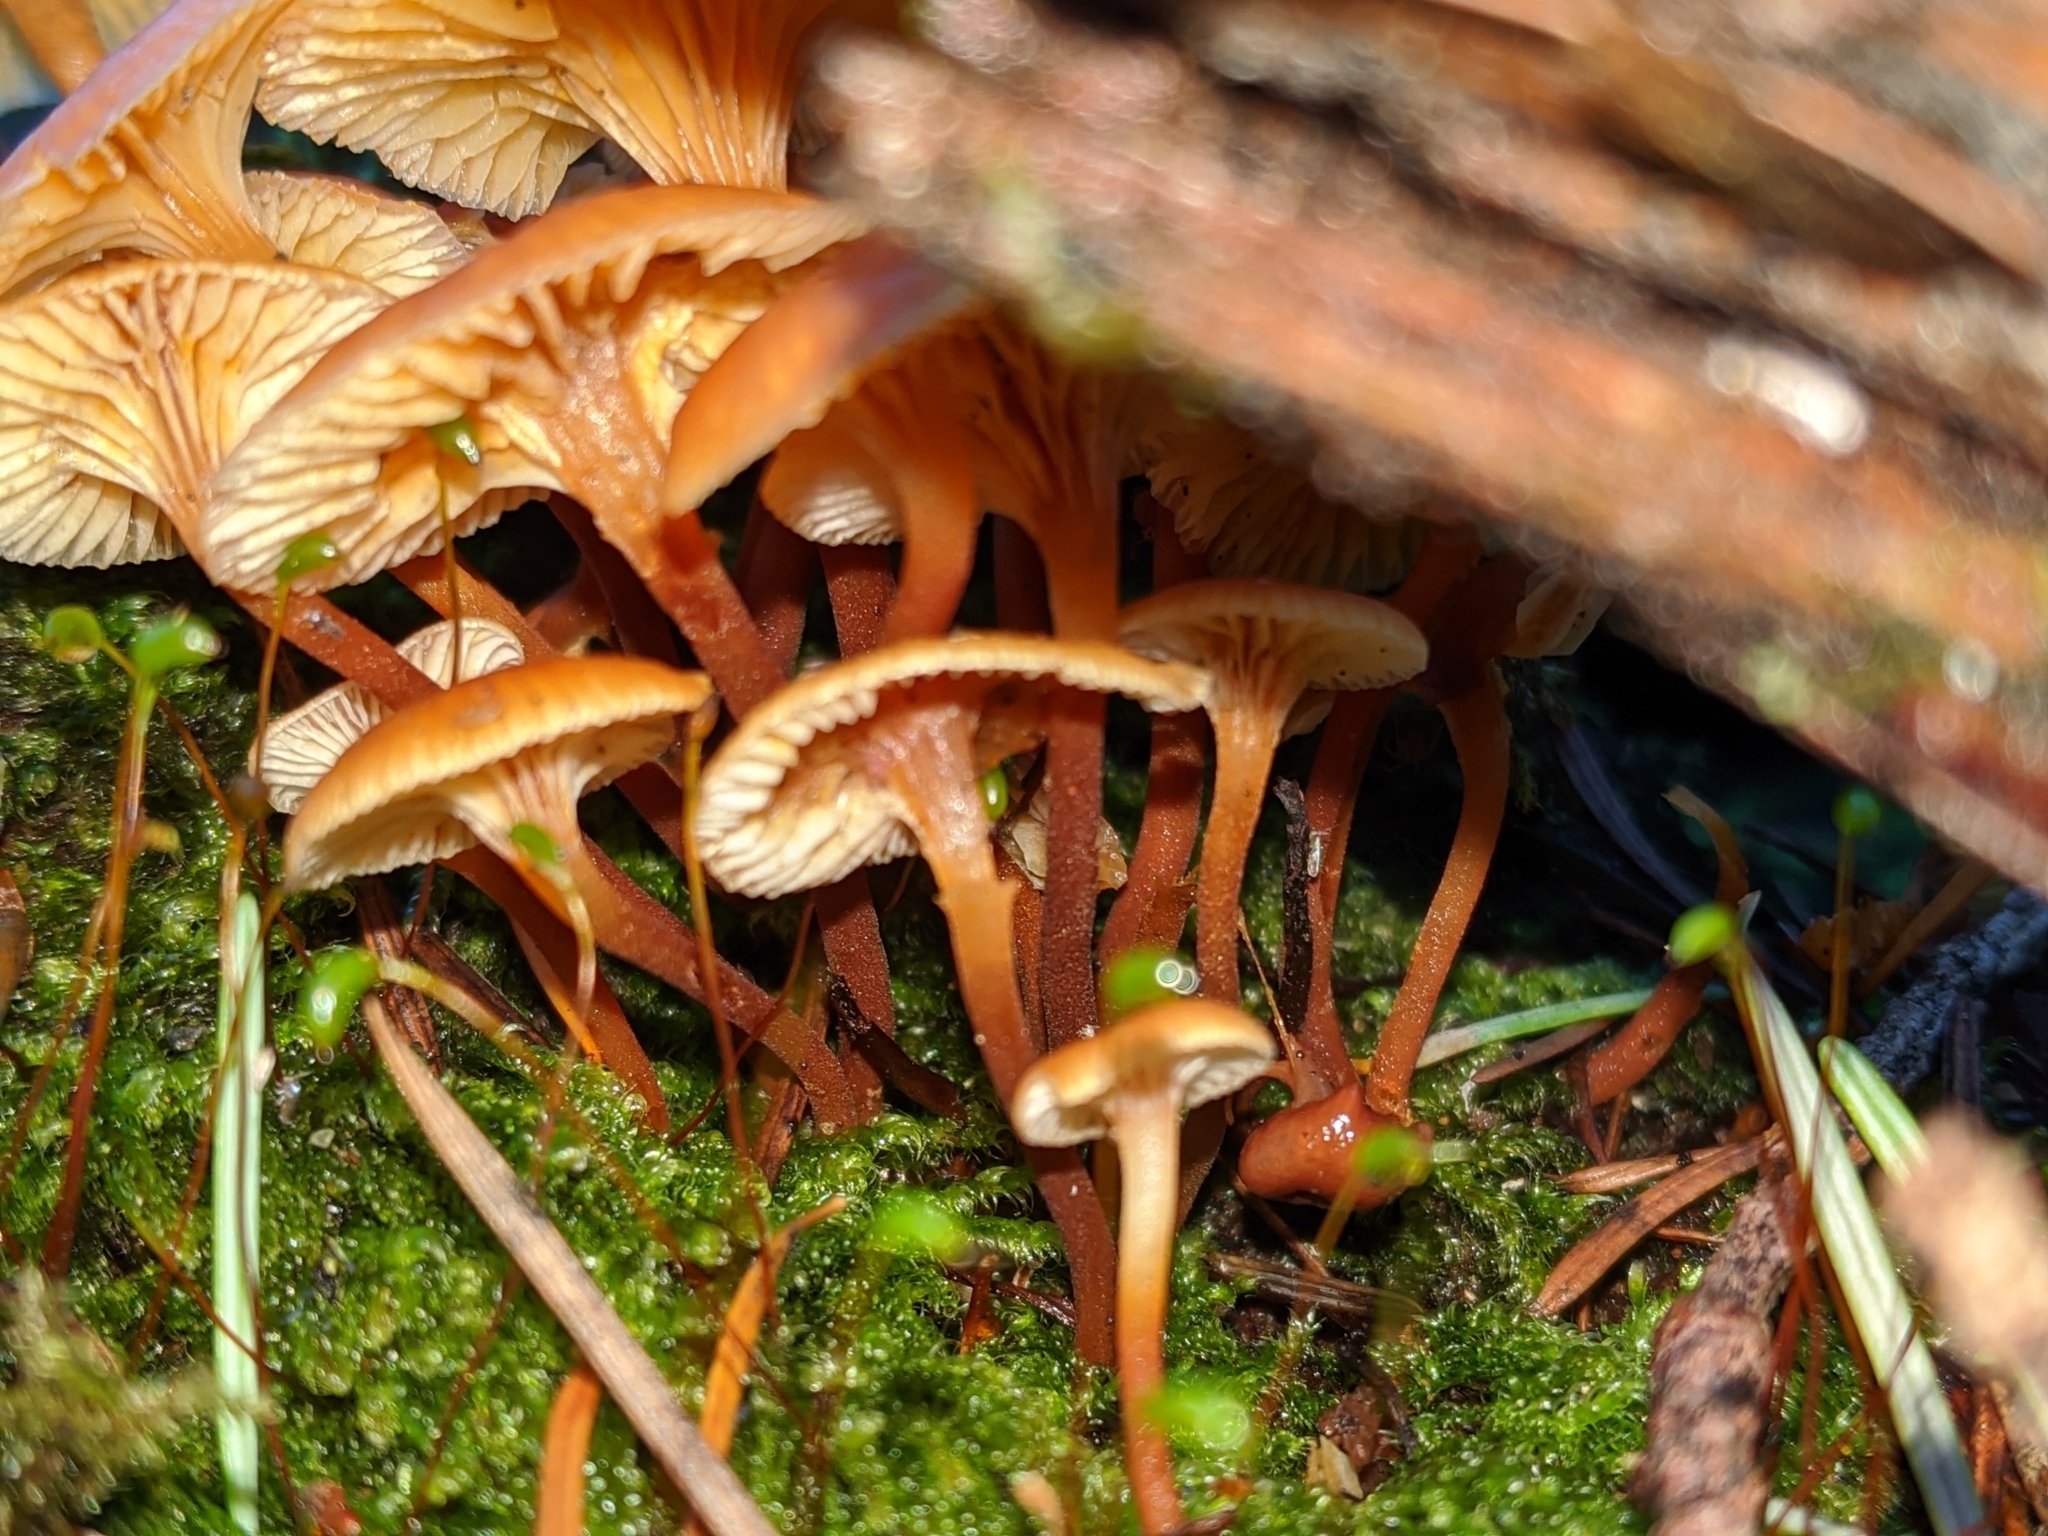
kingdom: Fungi
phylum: Basidiomycota
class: Agaricomycetes
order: Agaricales
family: Mycenaceae
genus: Xeromphalina
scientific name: Xeromphalina campanella
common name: Pinewood gingertail
